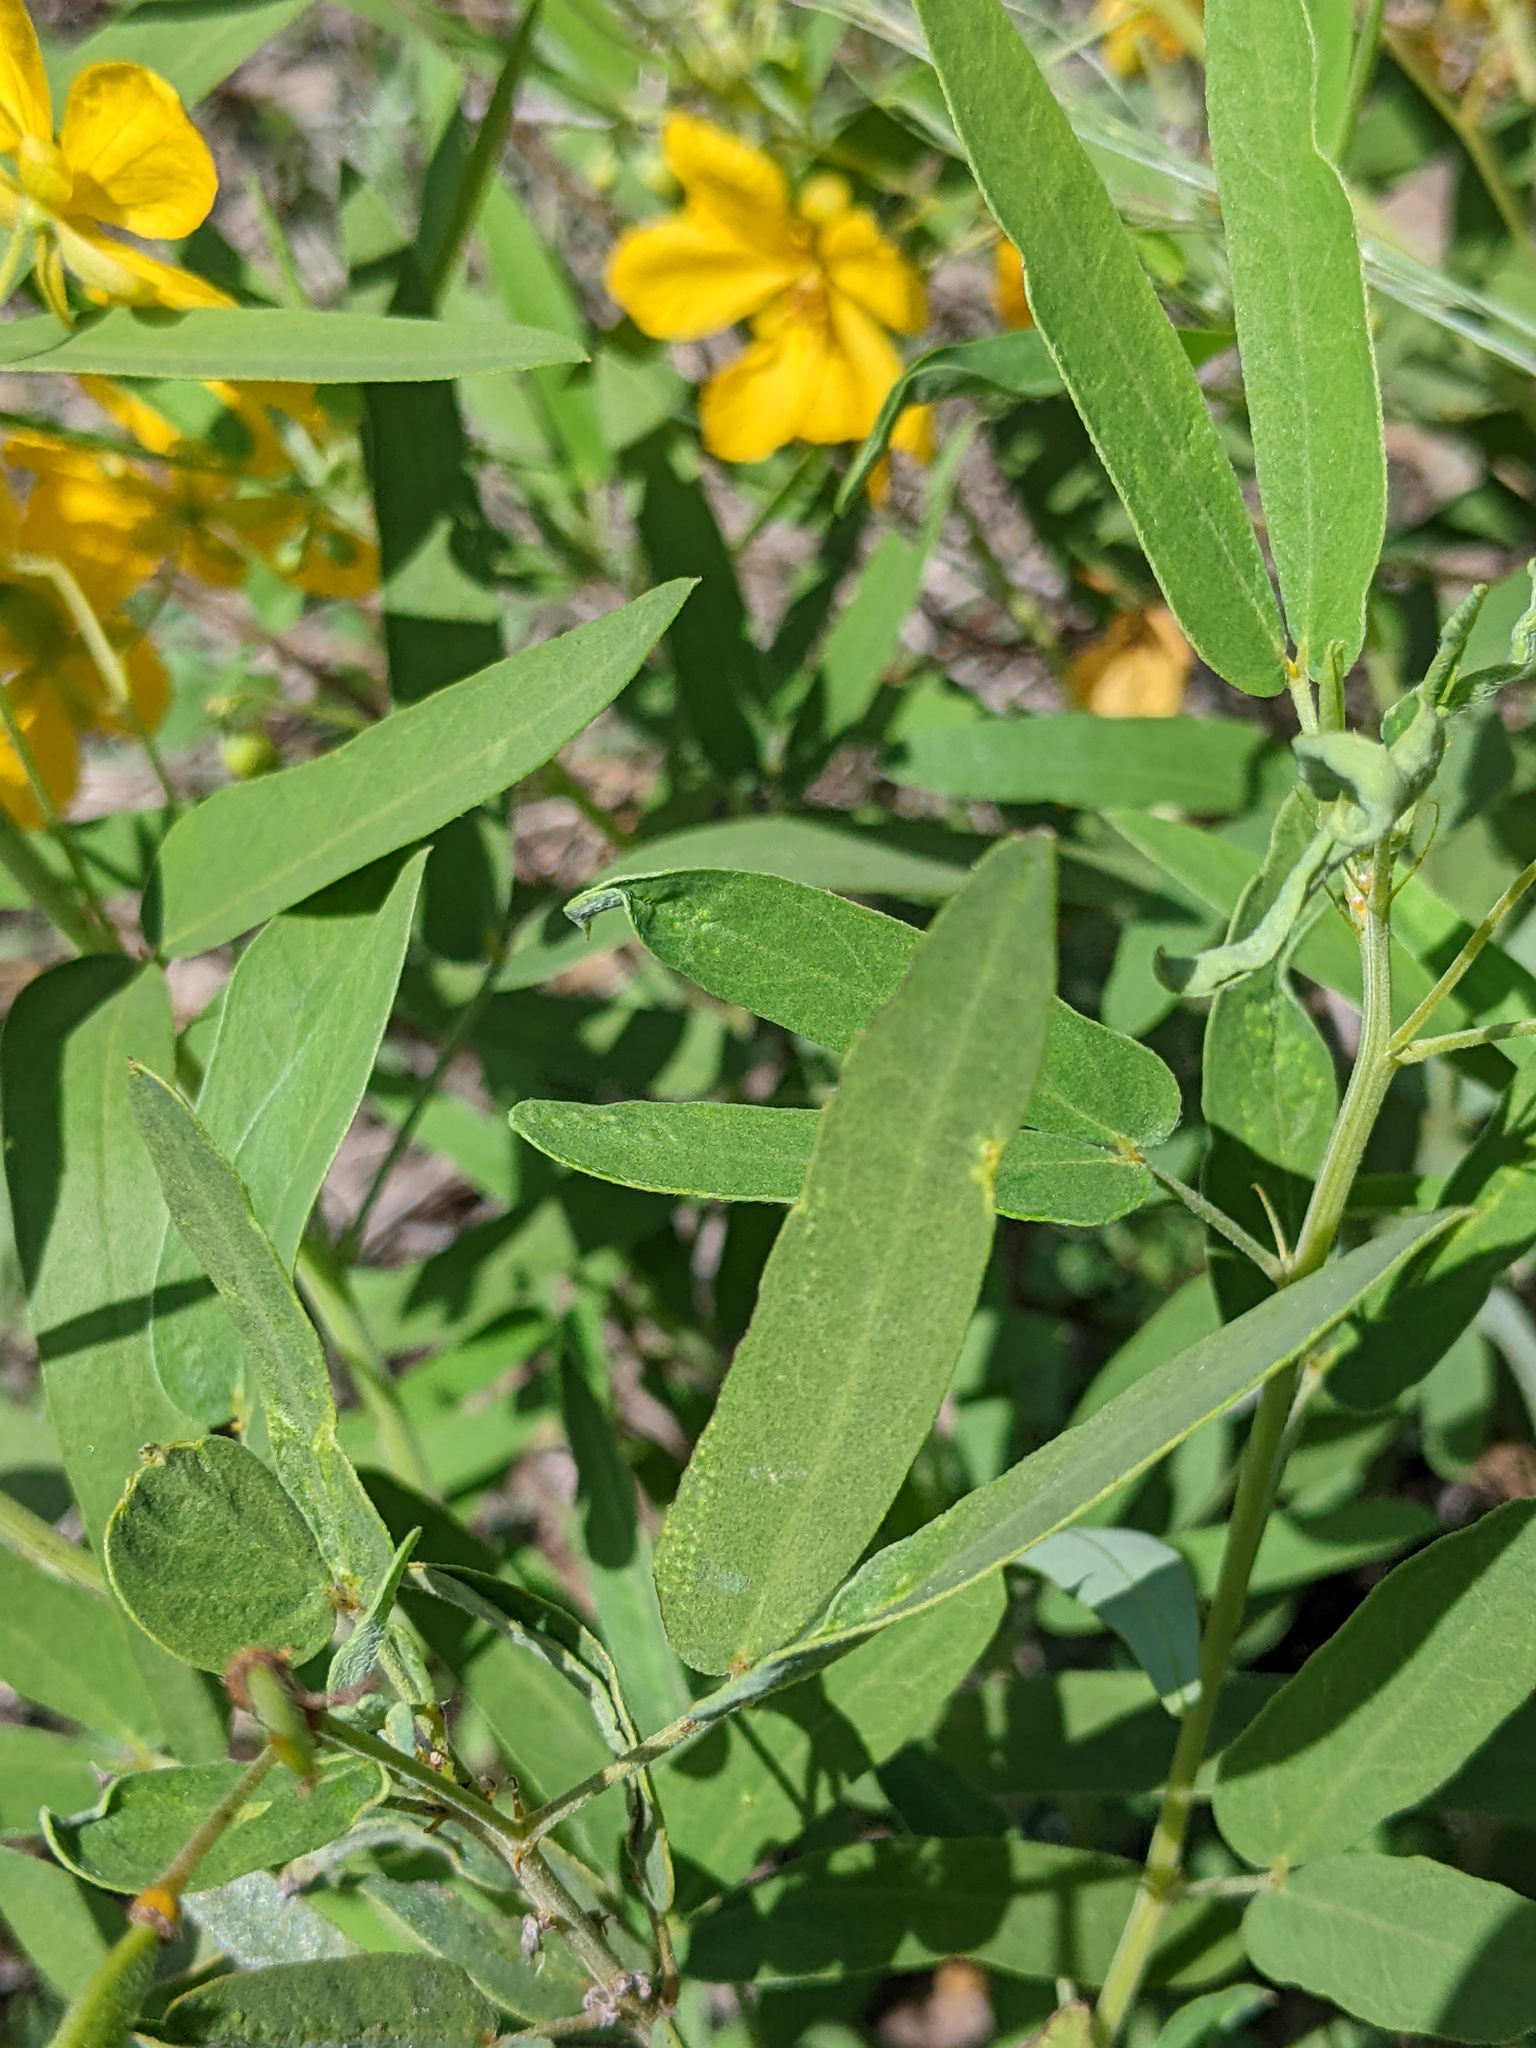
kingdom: Plantae
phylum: Tracheophyta
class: Magnoliopsida
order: Fabales
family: Fabaceae
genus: Senna
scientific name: Senna roemeriana
